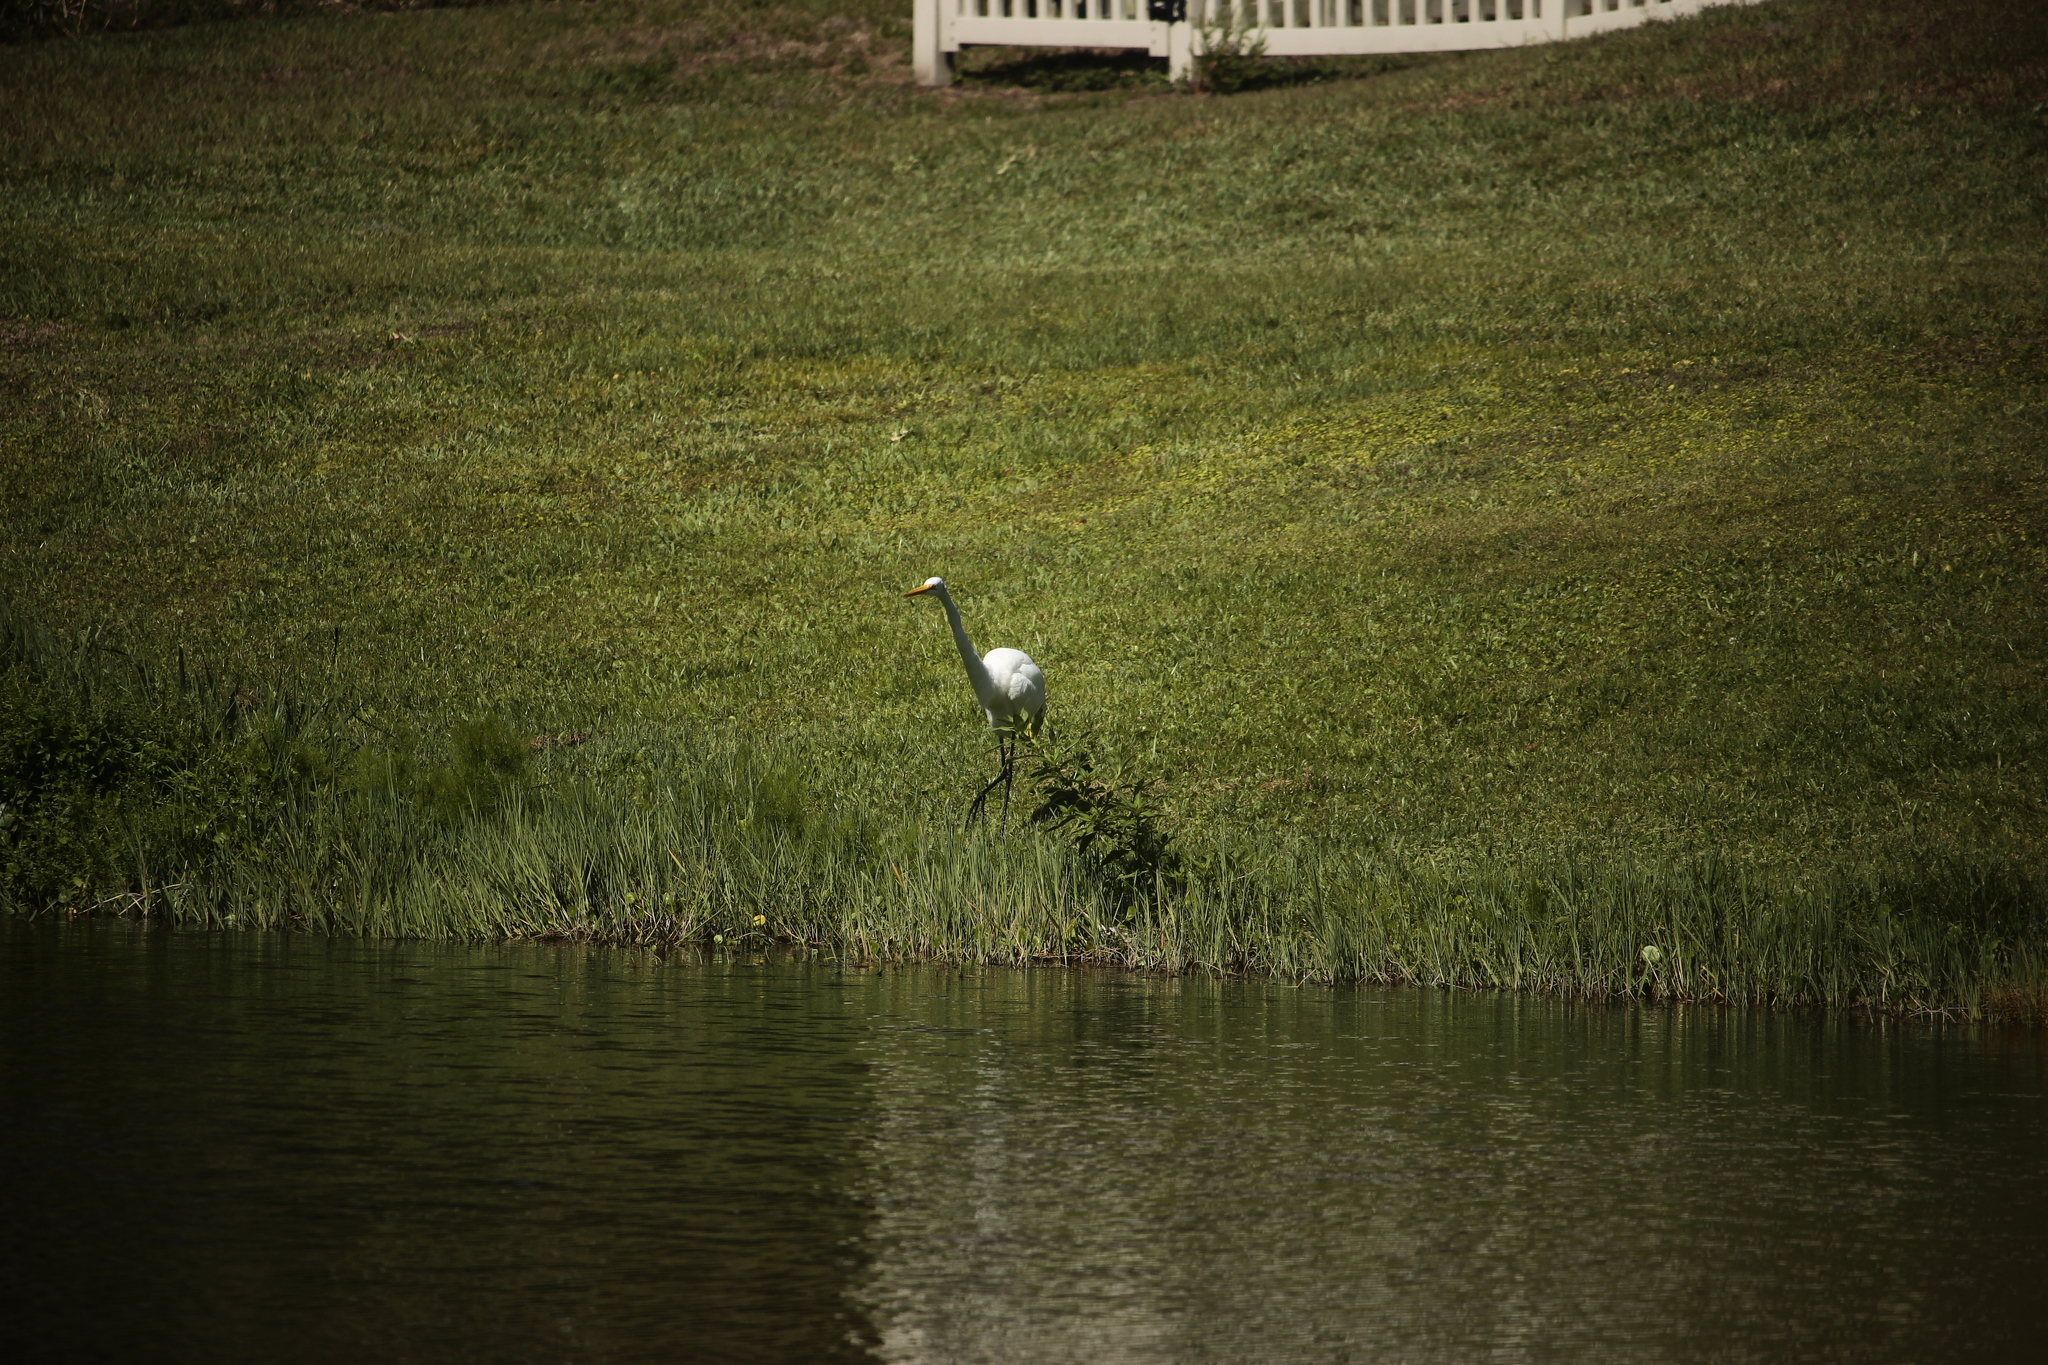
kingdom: Animalia
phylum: Chordata
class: Aves
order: Pelecaniformes
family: Ardeidae
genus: Ardea
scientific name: Ardea alba
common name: Great egret
